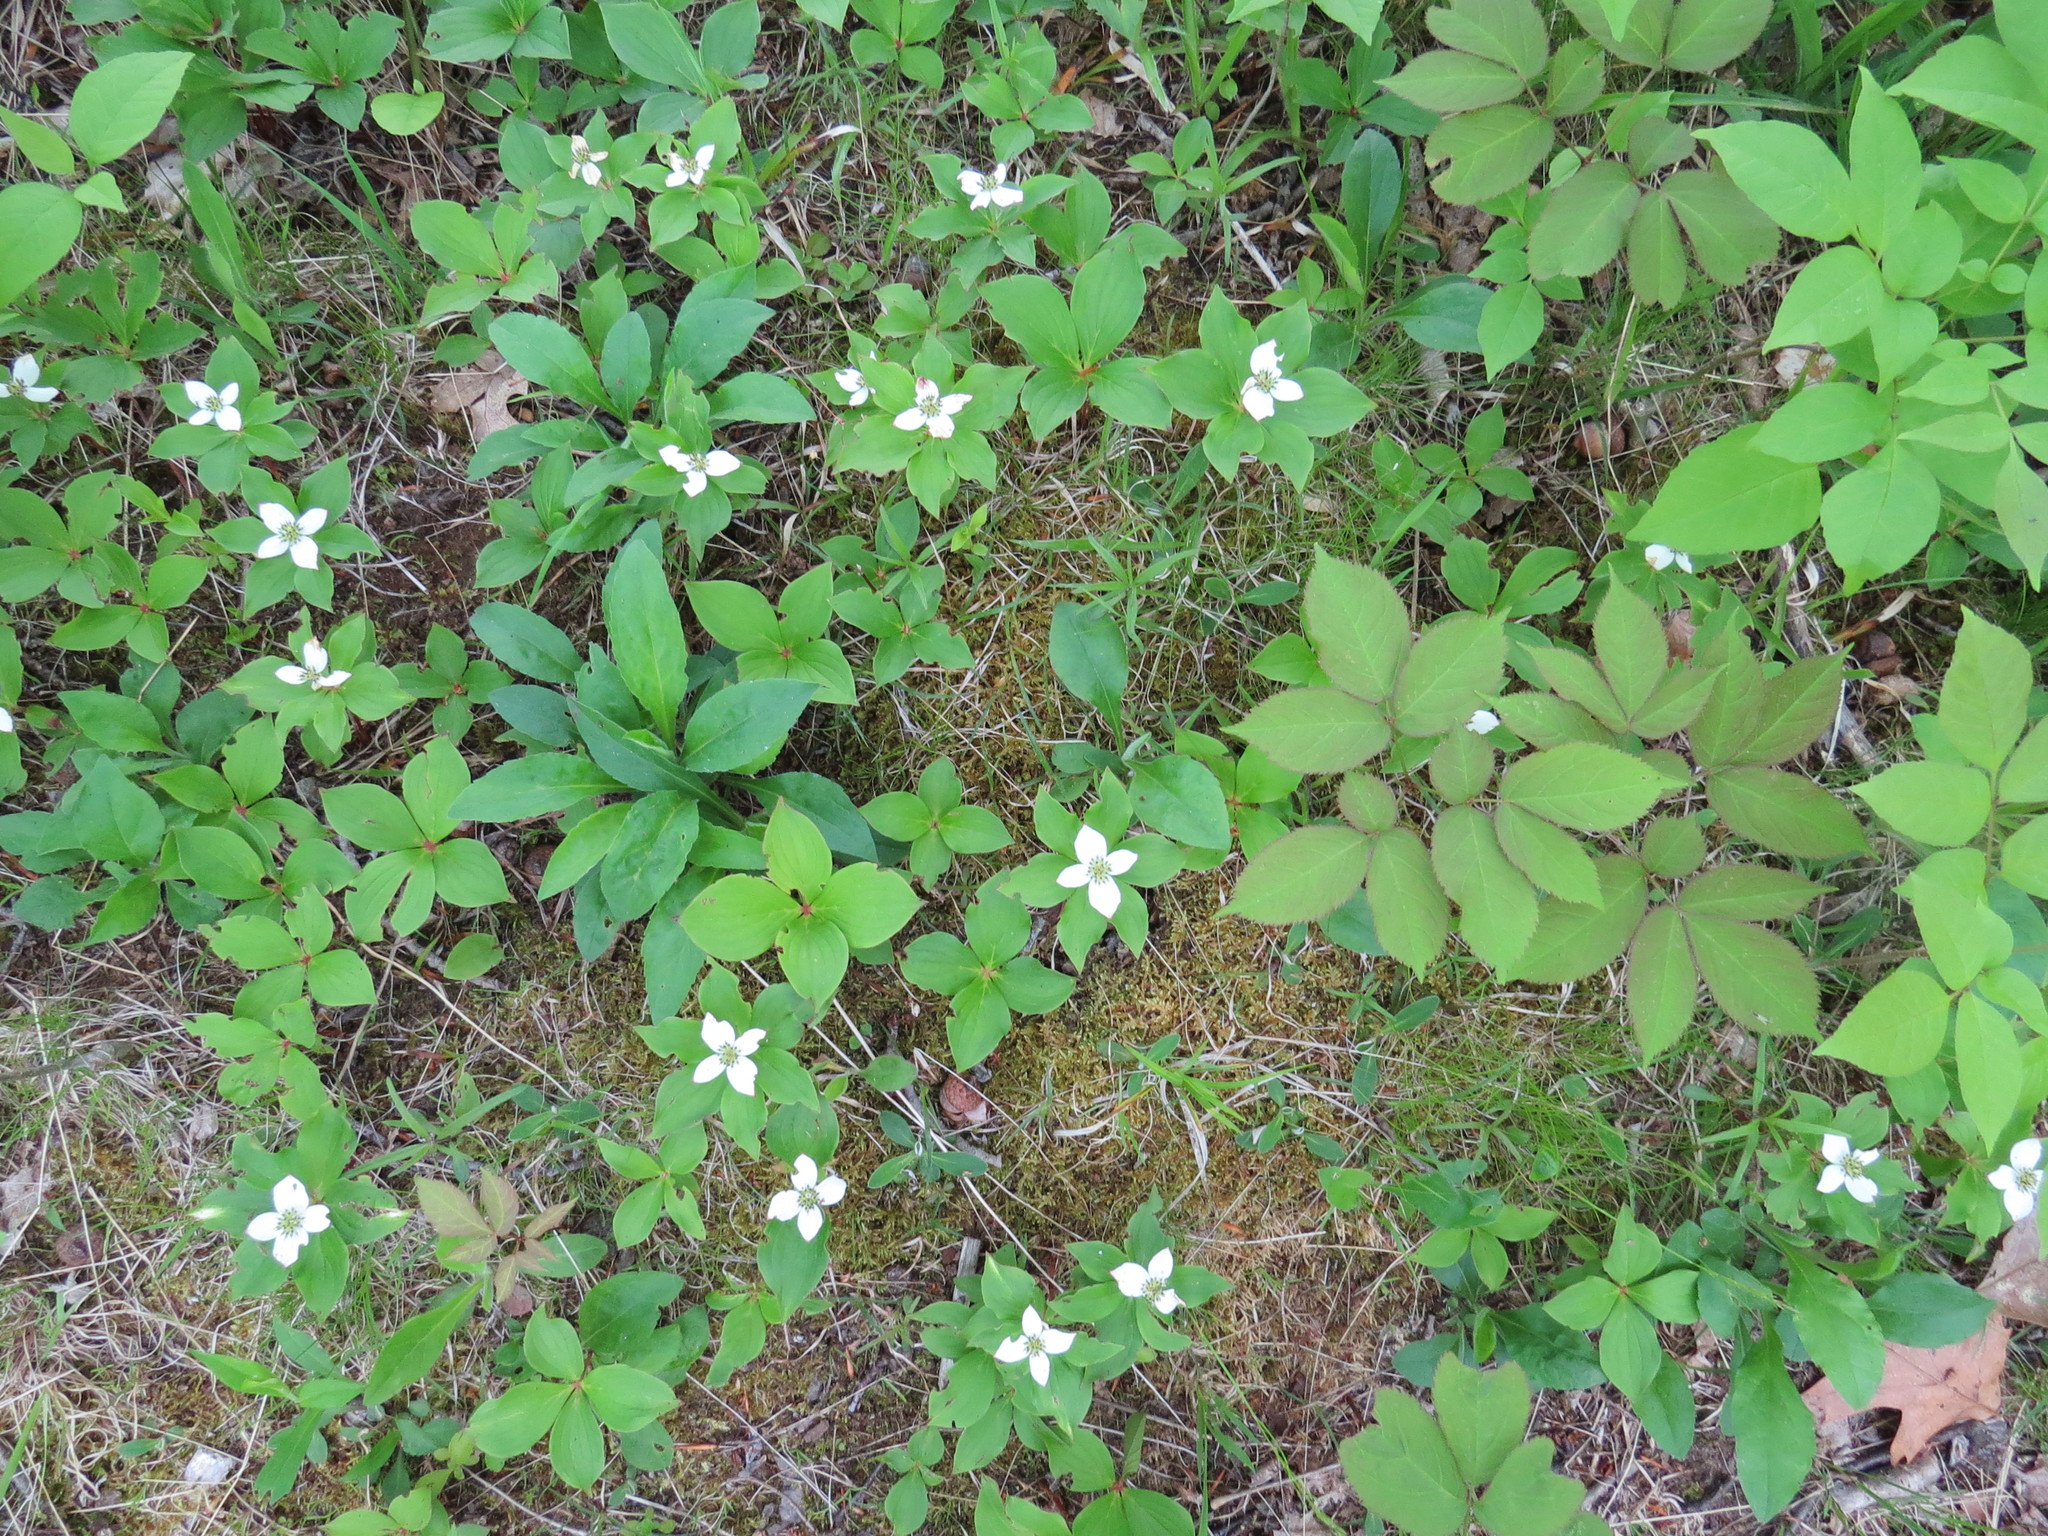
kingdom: Plantae
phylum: Tracheophyta
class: Magnoliopsida
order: Cornales
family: Cornaceae
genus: Cornus
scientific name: Cornus canadensis
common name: Creeping dogwood
